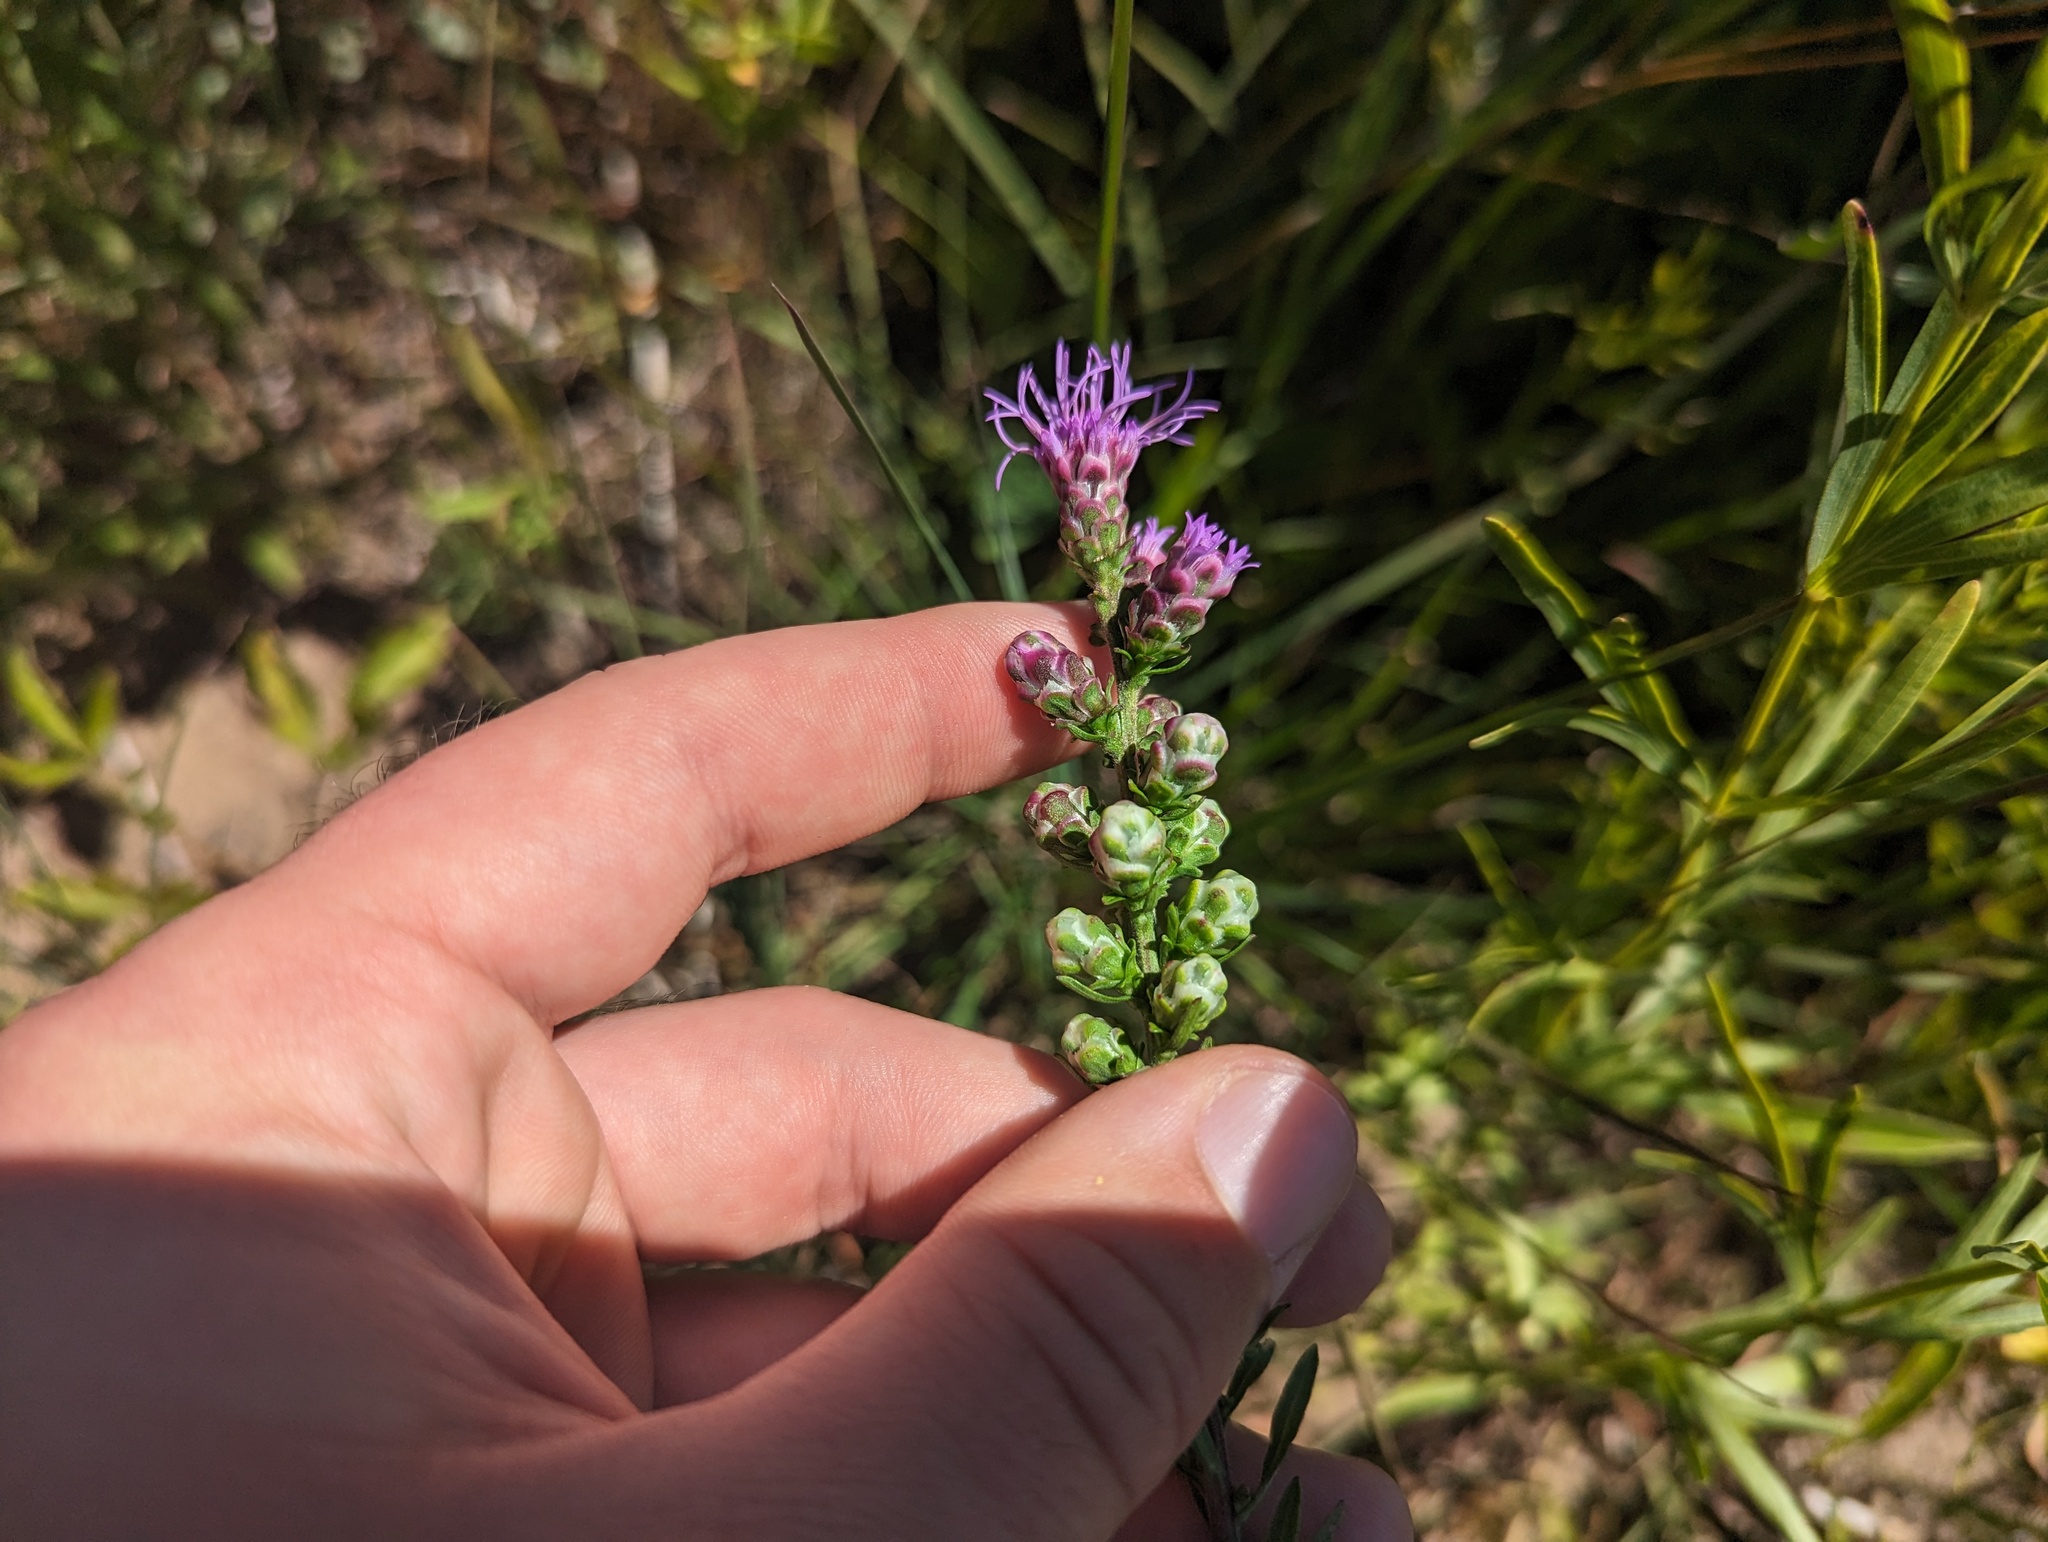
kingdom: Plantae
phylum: Tracheophyta
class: Magnoliopsida
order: Asterales
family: Asteraceae
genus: Liatris
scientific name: Liatris aspera
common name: Lacerate blazing-star
